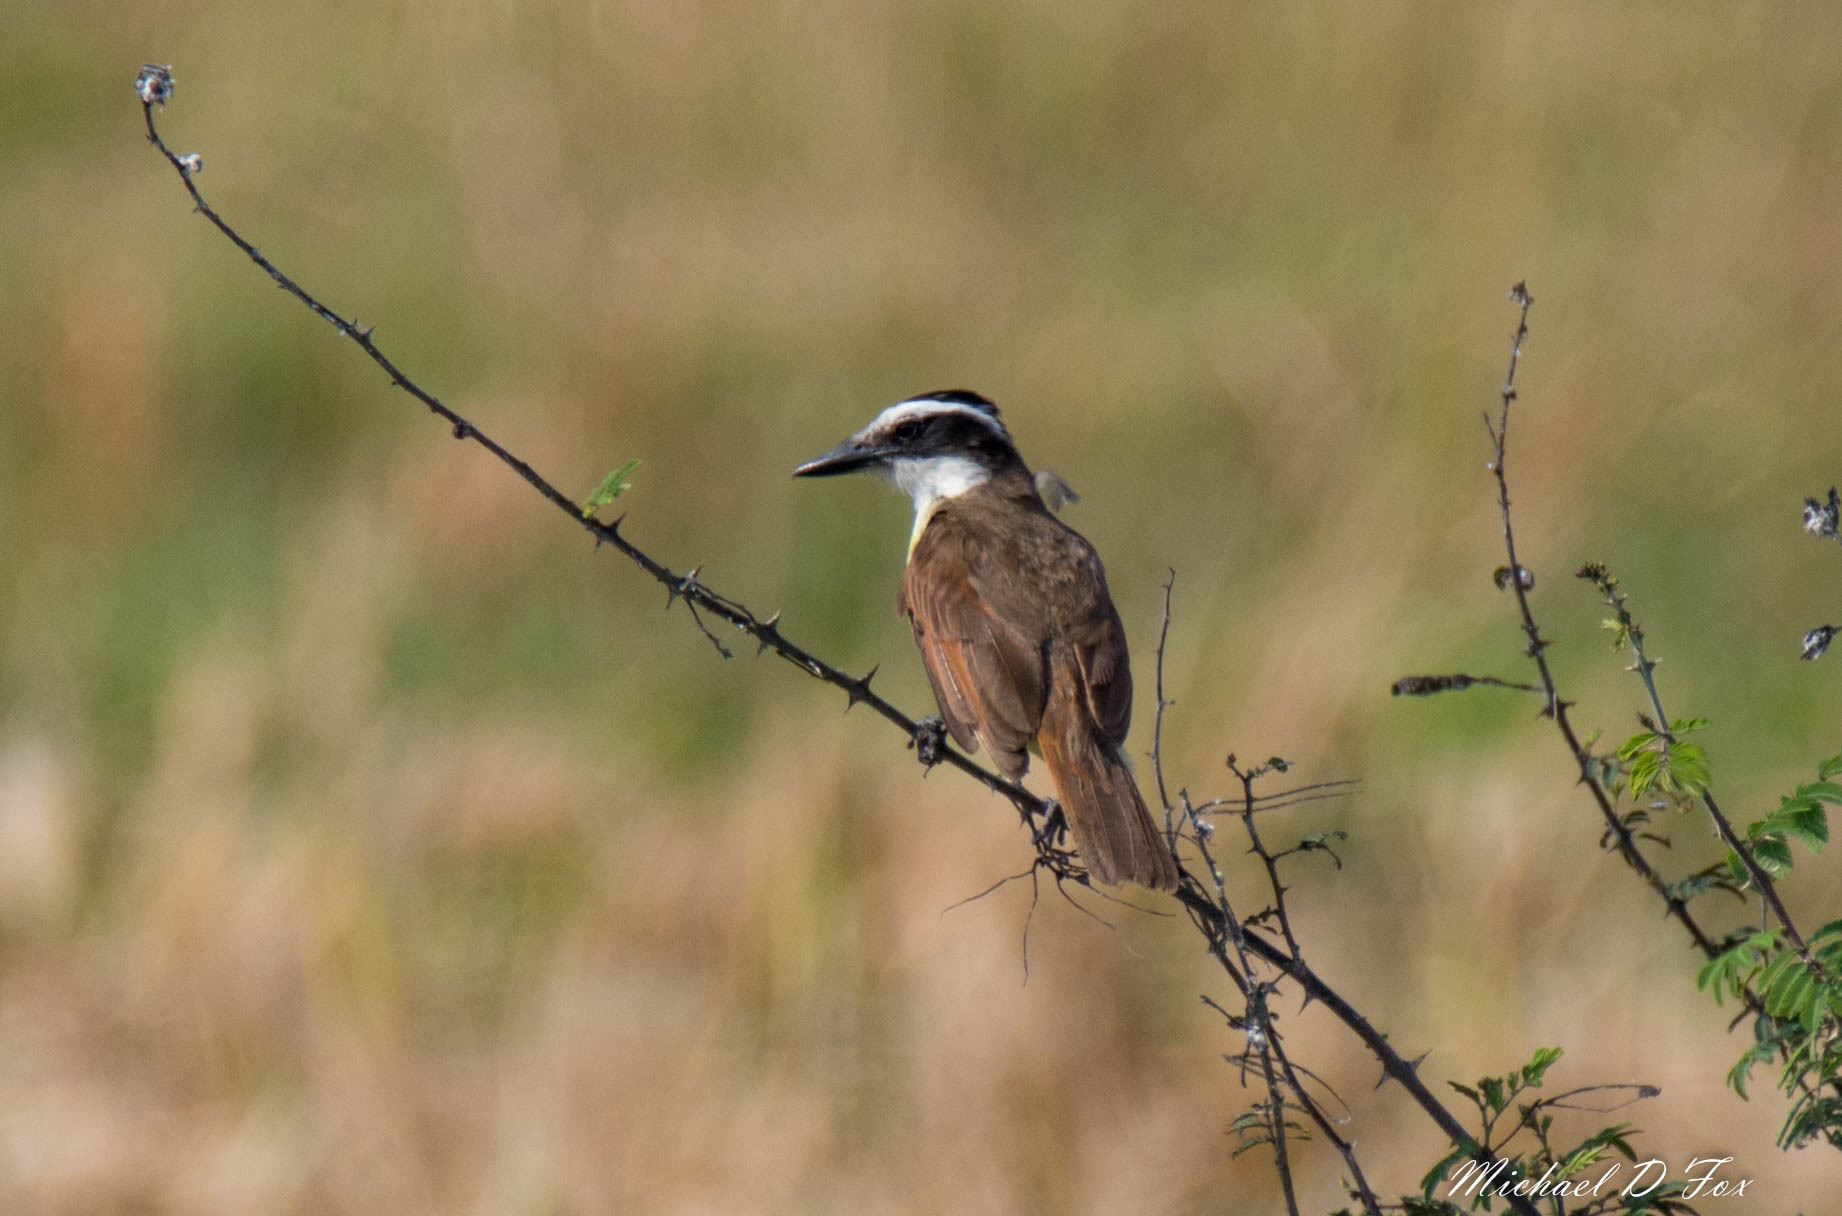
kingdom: Animalia
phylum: Chordata
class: Aves
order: Passeriformes
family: Tyrannidae
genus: Pitangus
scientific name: Pitangus sulphuratus
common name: Great kiskadee
